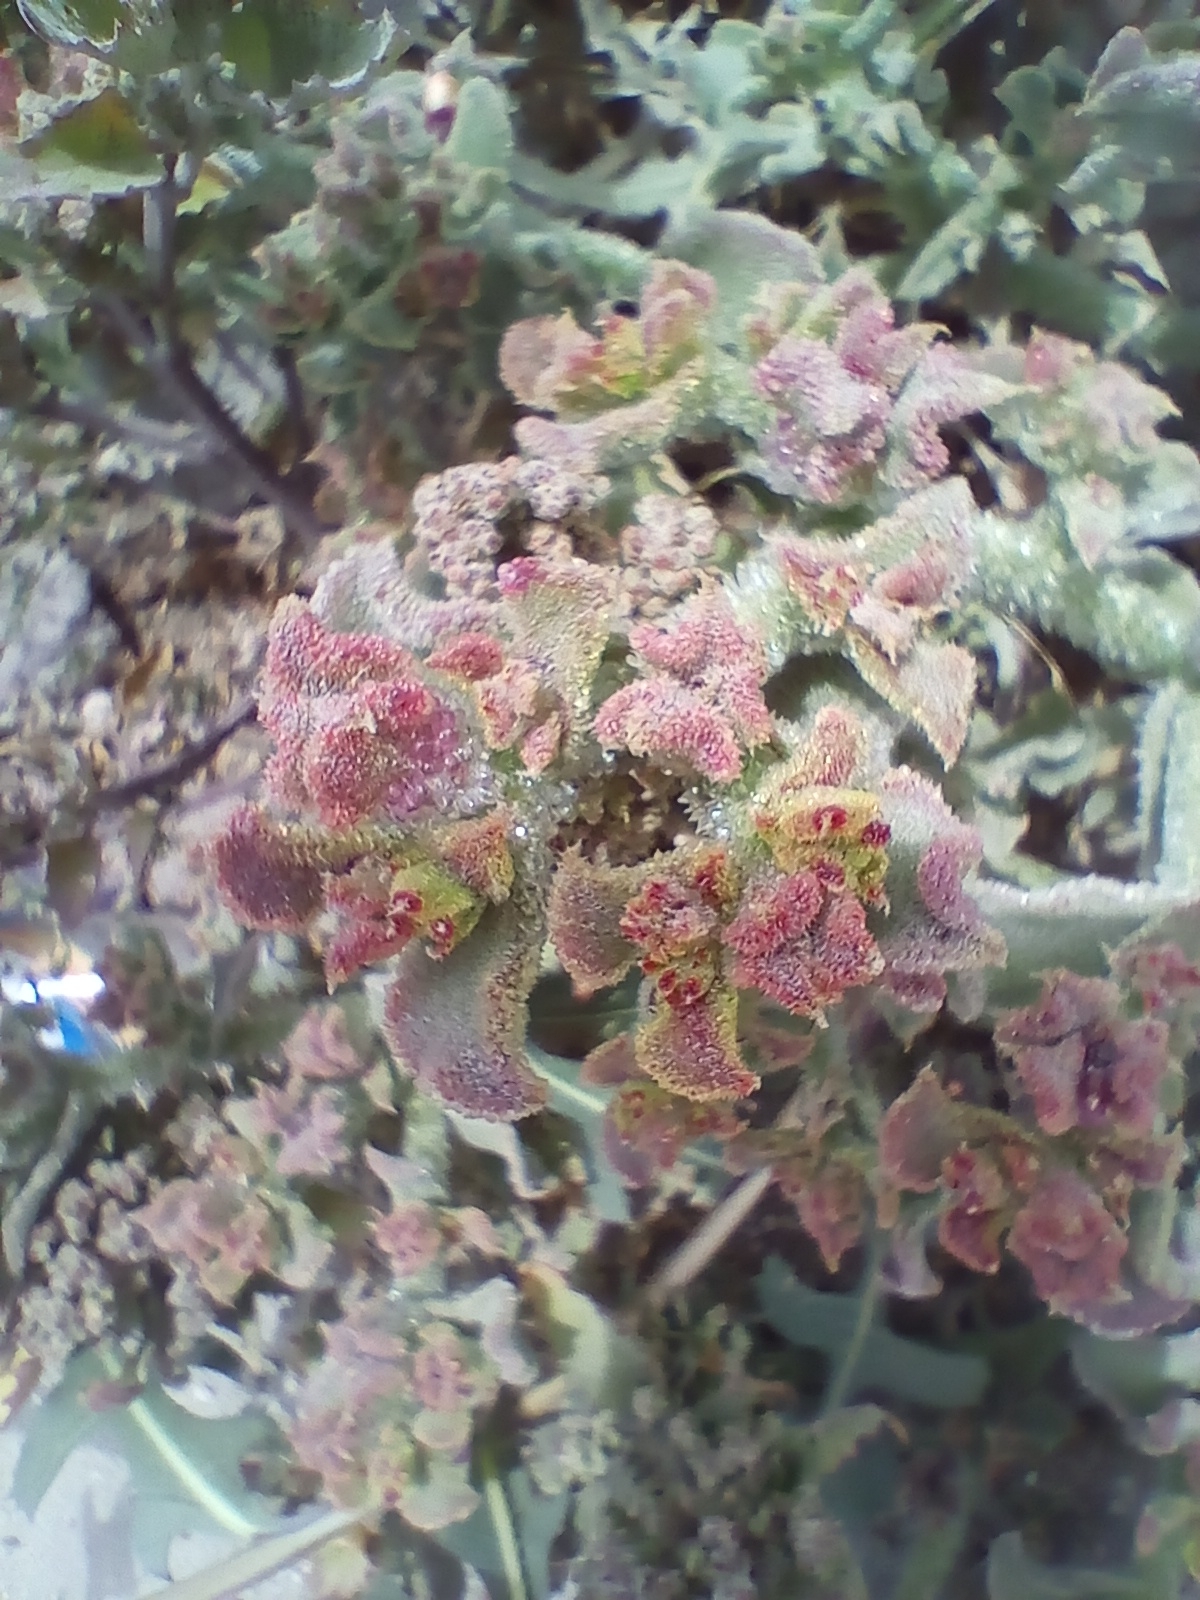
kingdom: Plantae
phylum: Tracheophyta
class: Magnoliopsida
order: Caryophyllales
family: Aizoaceae
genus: Mesembryanthemum
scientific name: Mesembryanthemum crystallinum
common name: Common iceplant
